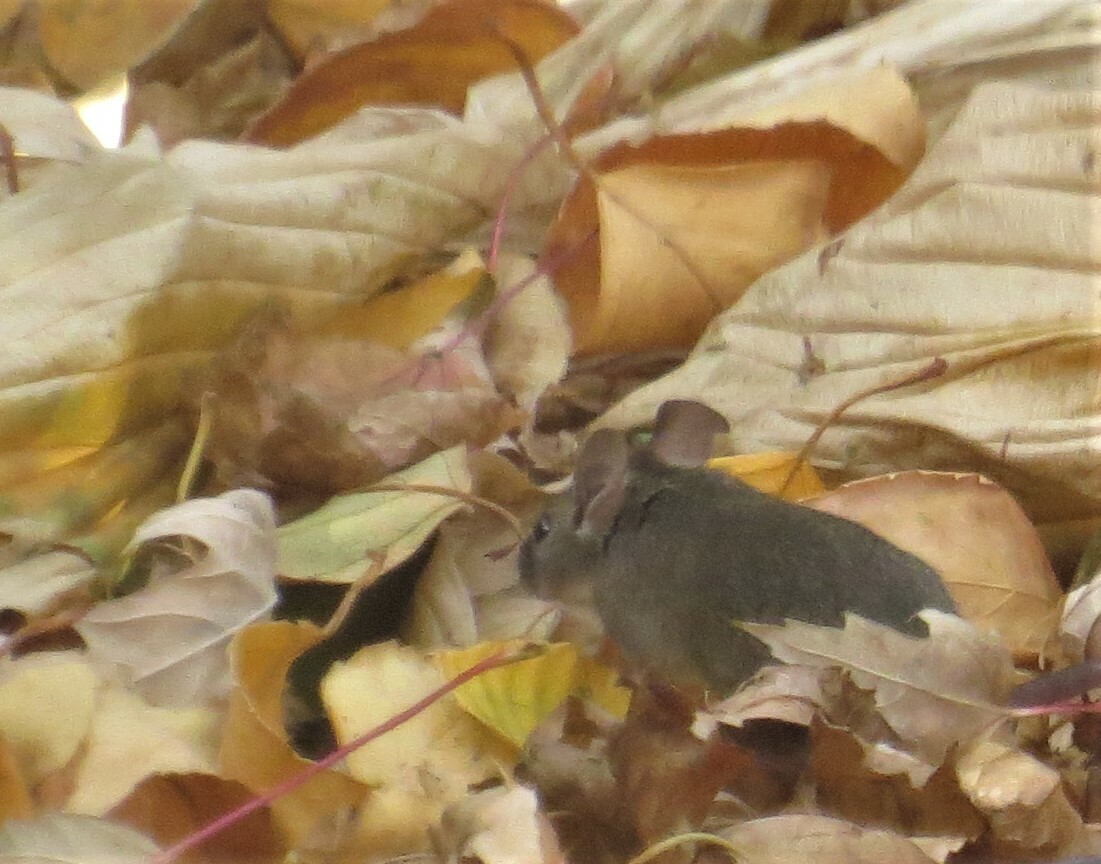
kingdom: Animalia
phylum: Chordata
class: Mammalia
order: Rodentia
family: Muridae
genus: Mus
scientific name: Mus musculus
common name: House mouse
